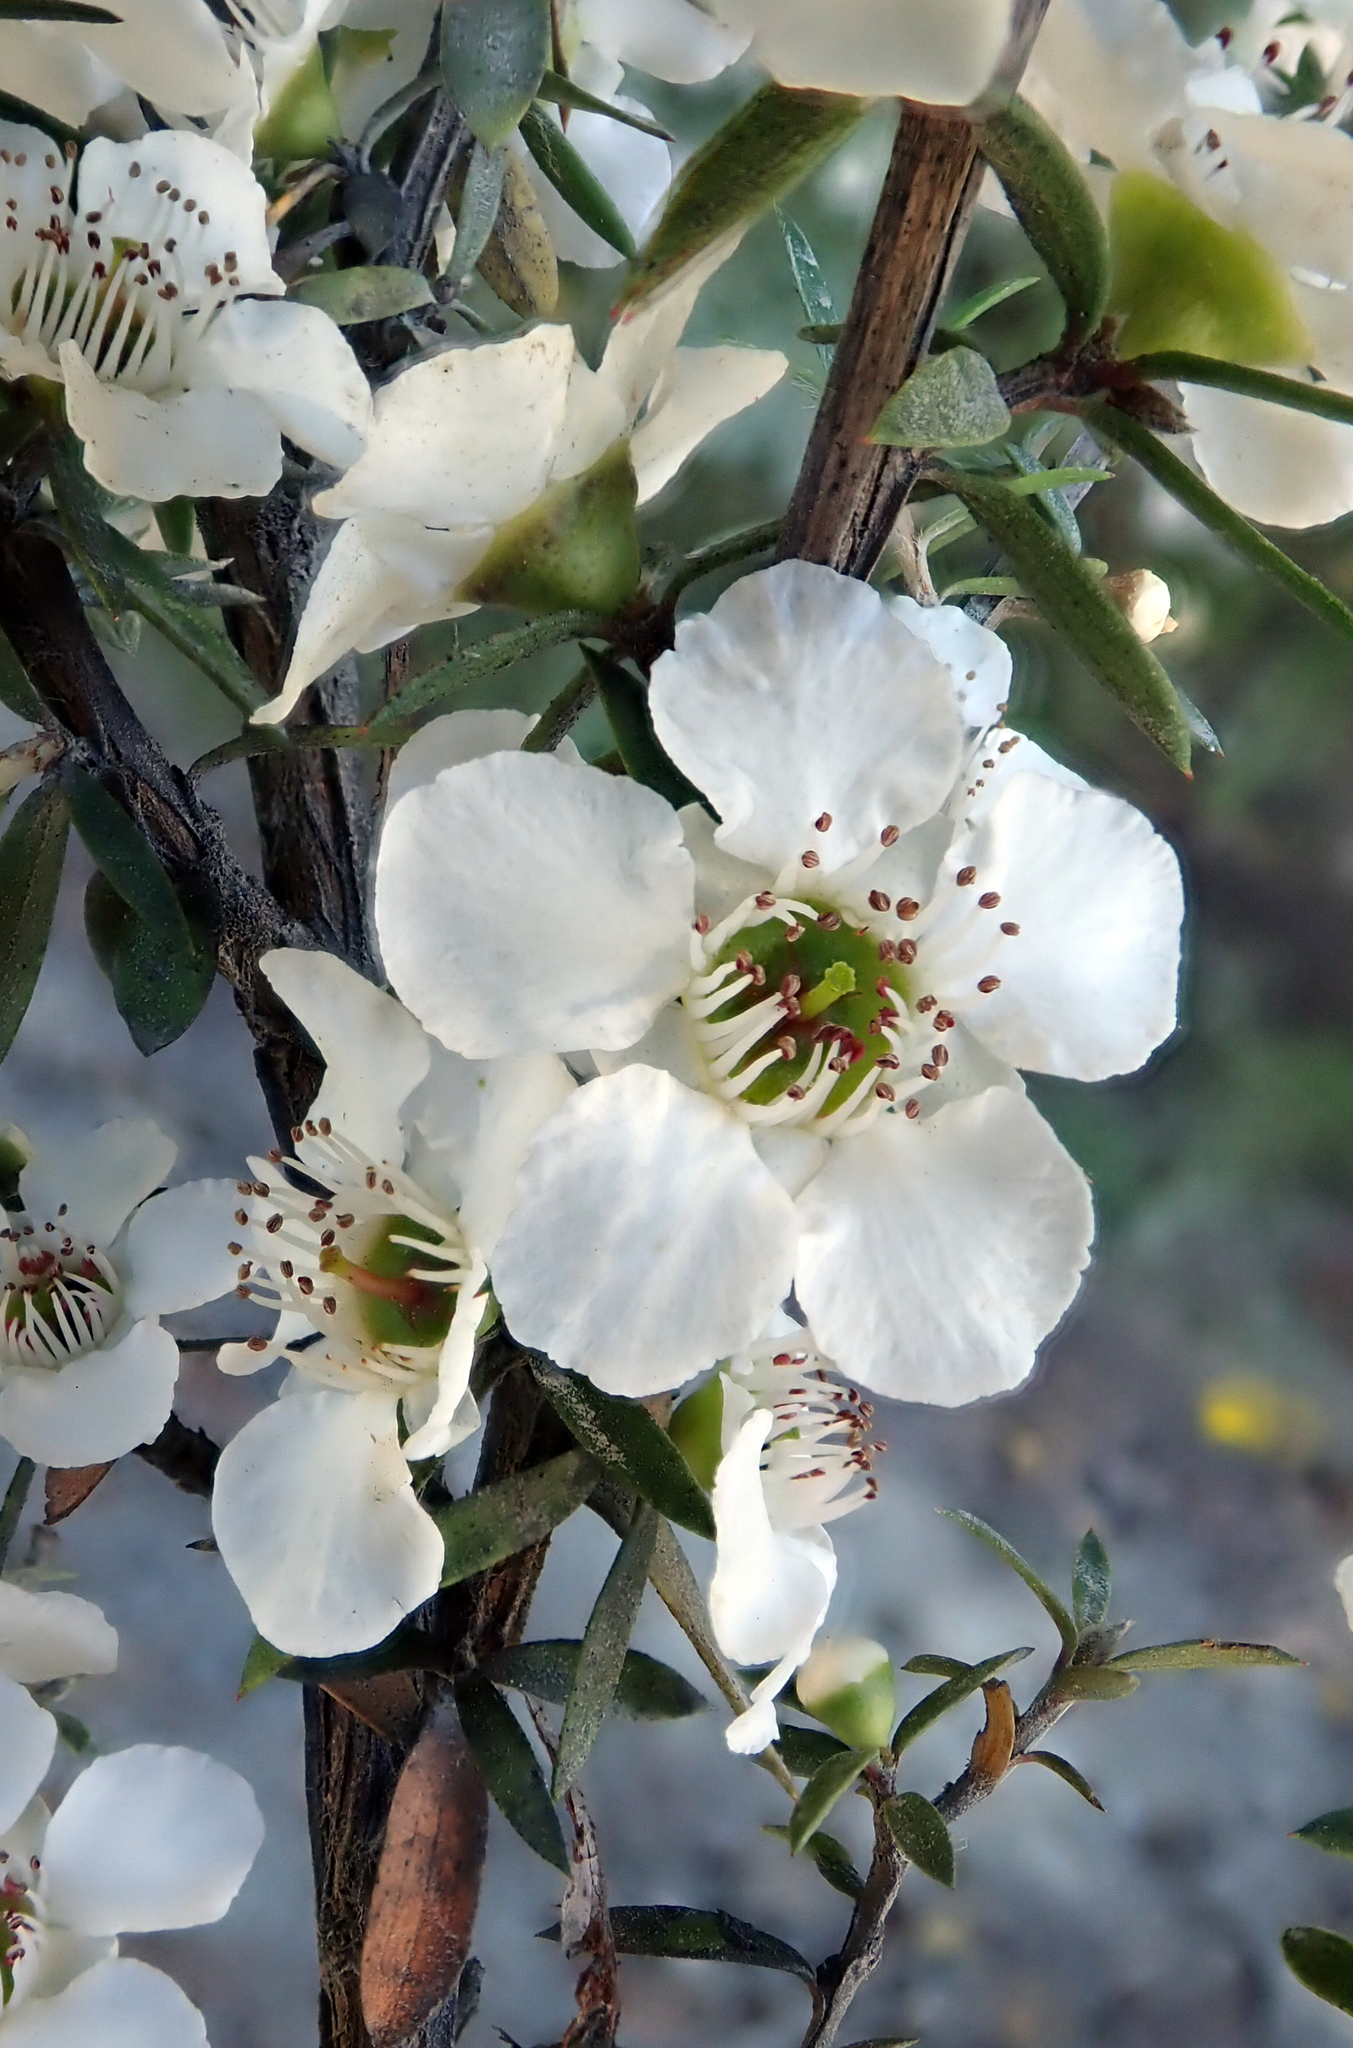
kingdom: Plantae
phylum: Tracheophyta
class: Magnoliopsida
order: Myrtales
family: Myrtaceae
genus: Leptospermum
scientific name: Leptospermum scoparium
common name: Broom tea-tree
